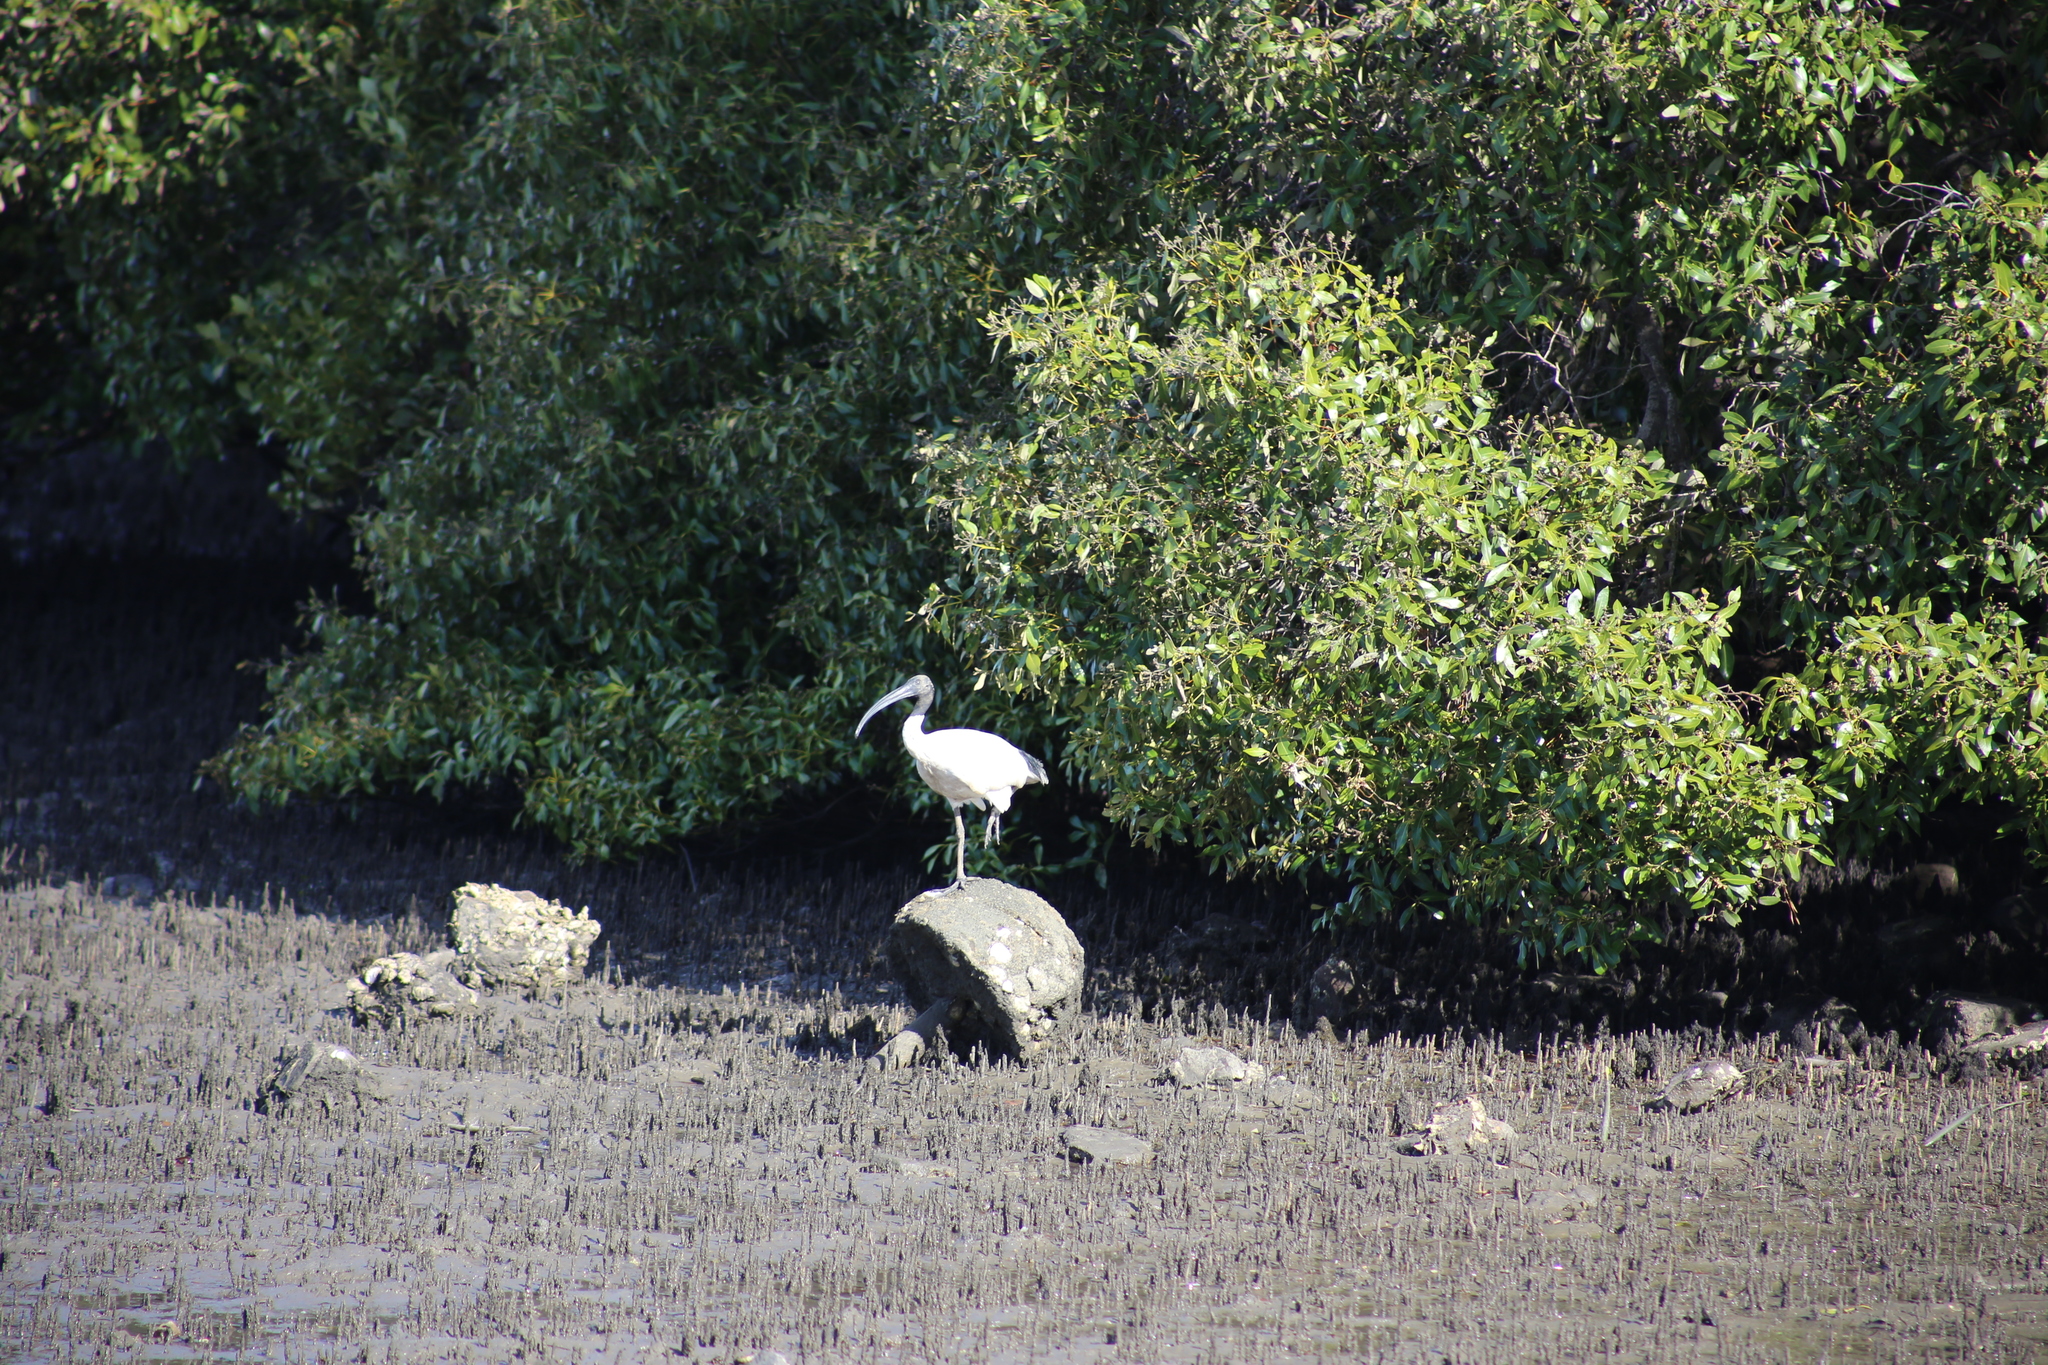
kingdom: Animalia
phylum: Chordata
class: Aves
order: Pelecaniformes
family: Threskiornithidae
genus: Threskiornis
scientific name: Threskiornis molucca
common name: Australian white ibis
